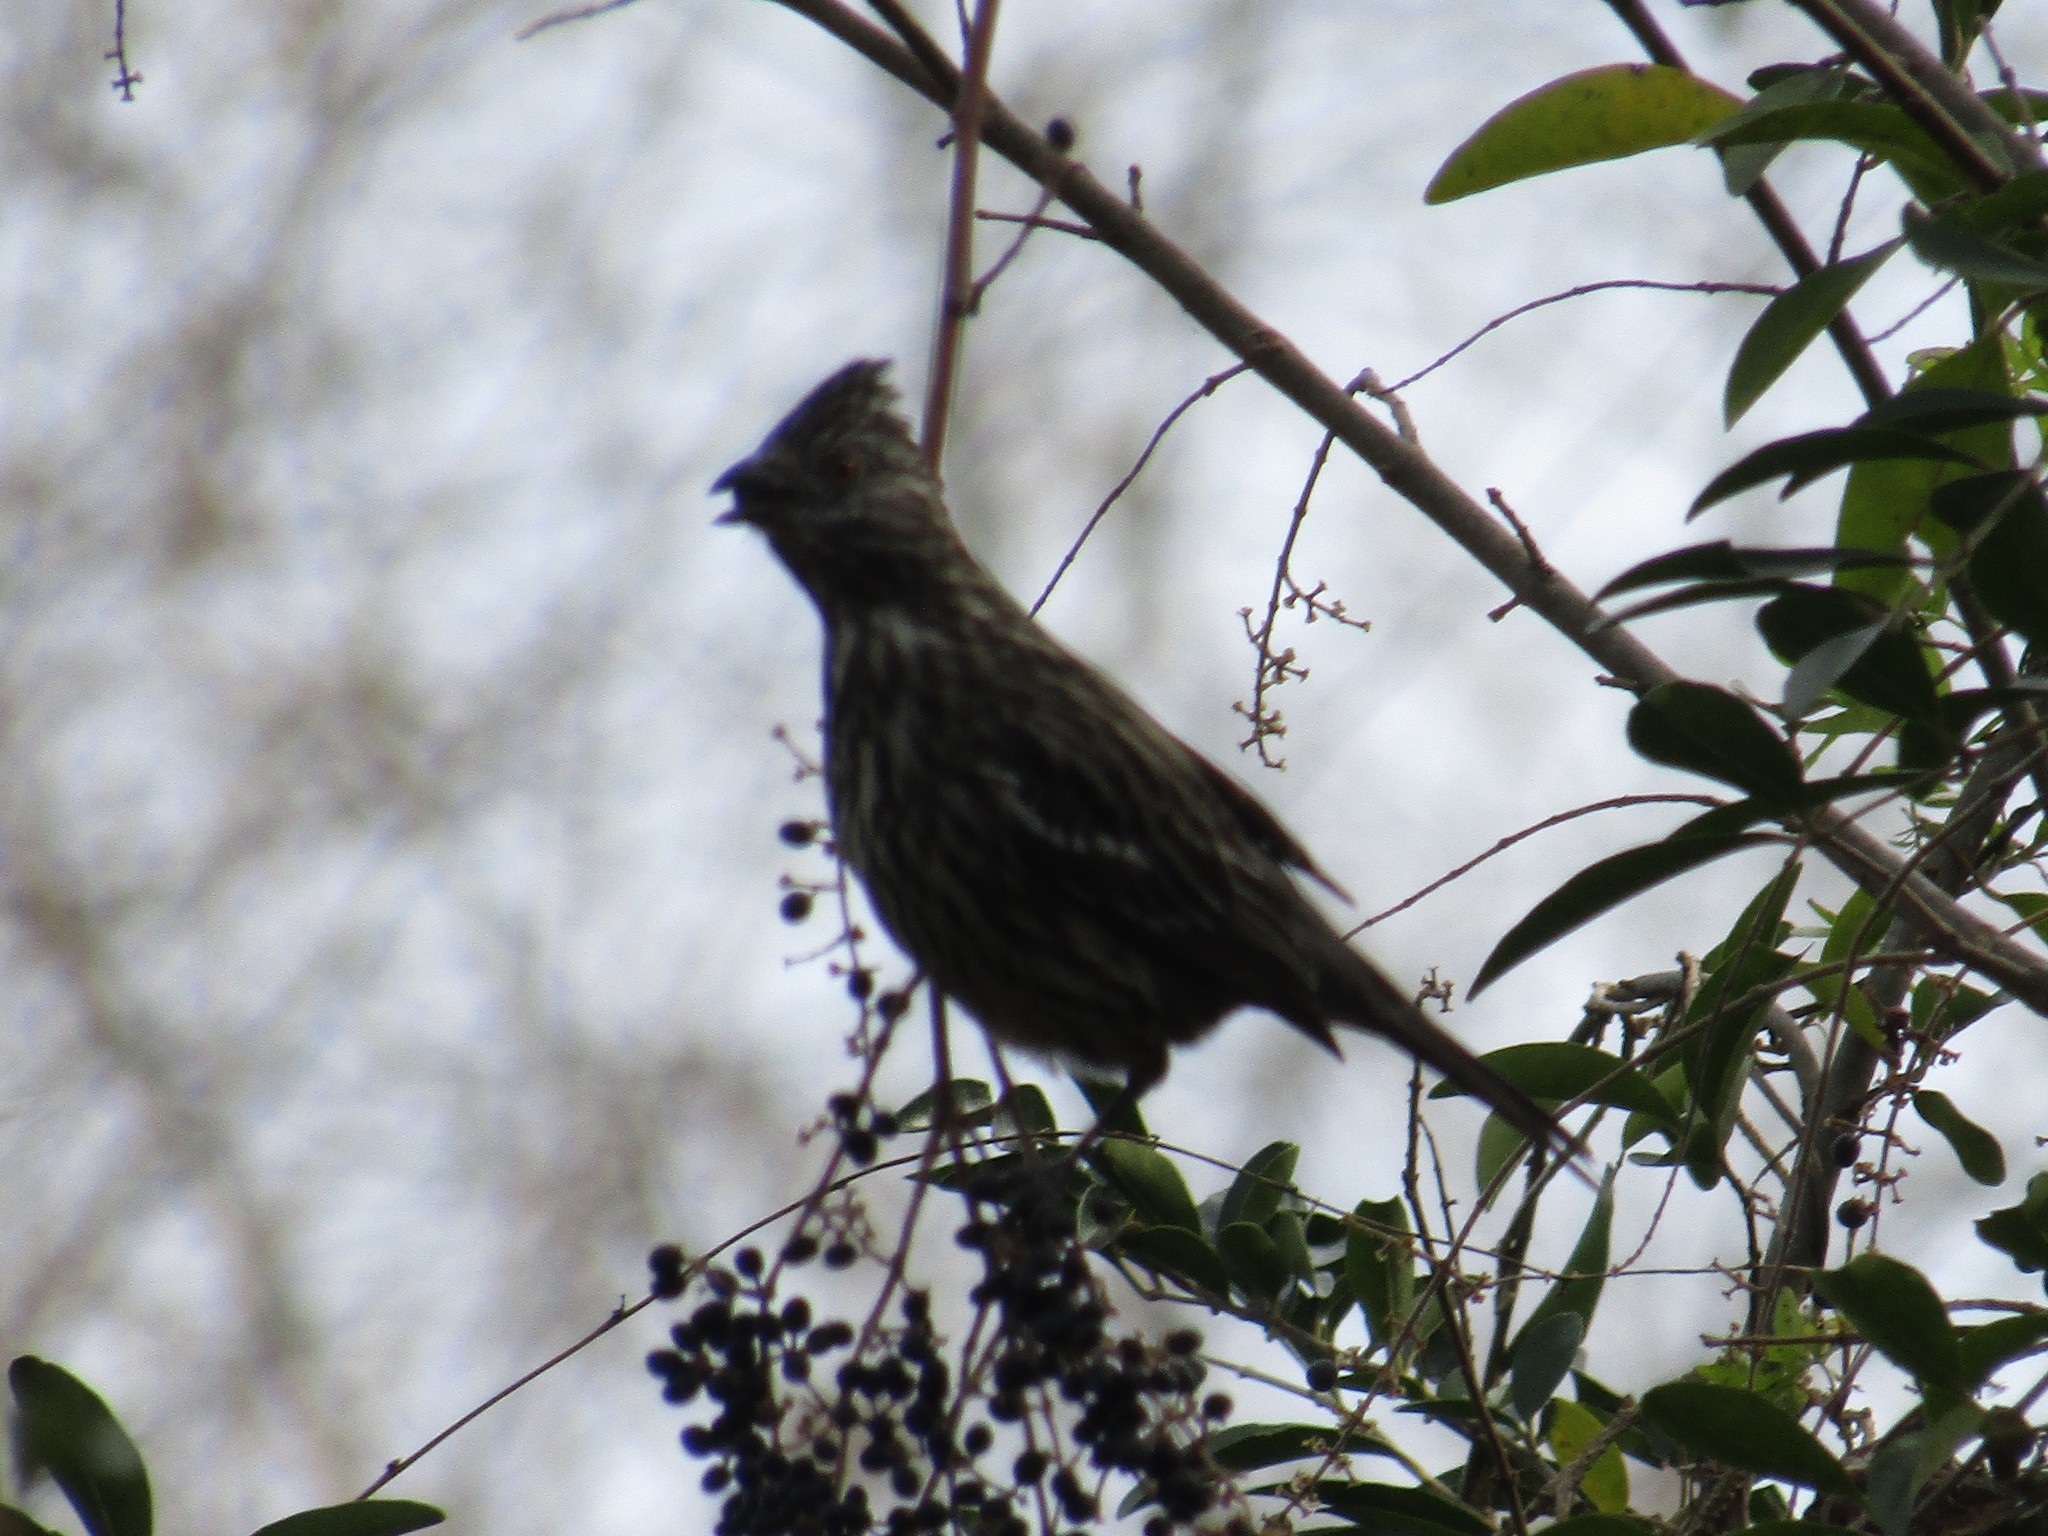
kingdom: Animalia
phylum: Chordata
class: Aves
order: Passeriformes
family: Cotingidae
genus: Phytotoma
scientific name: Phytotoma rutila
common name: White-tipped plantcutter
